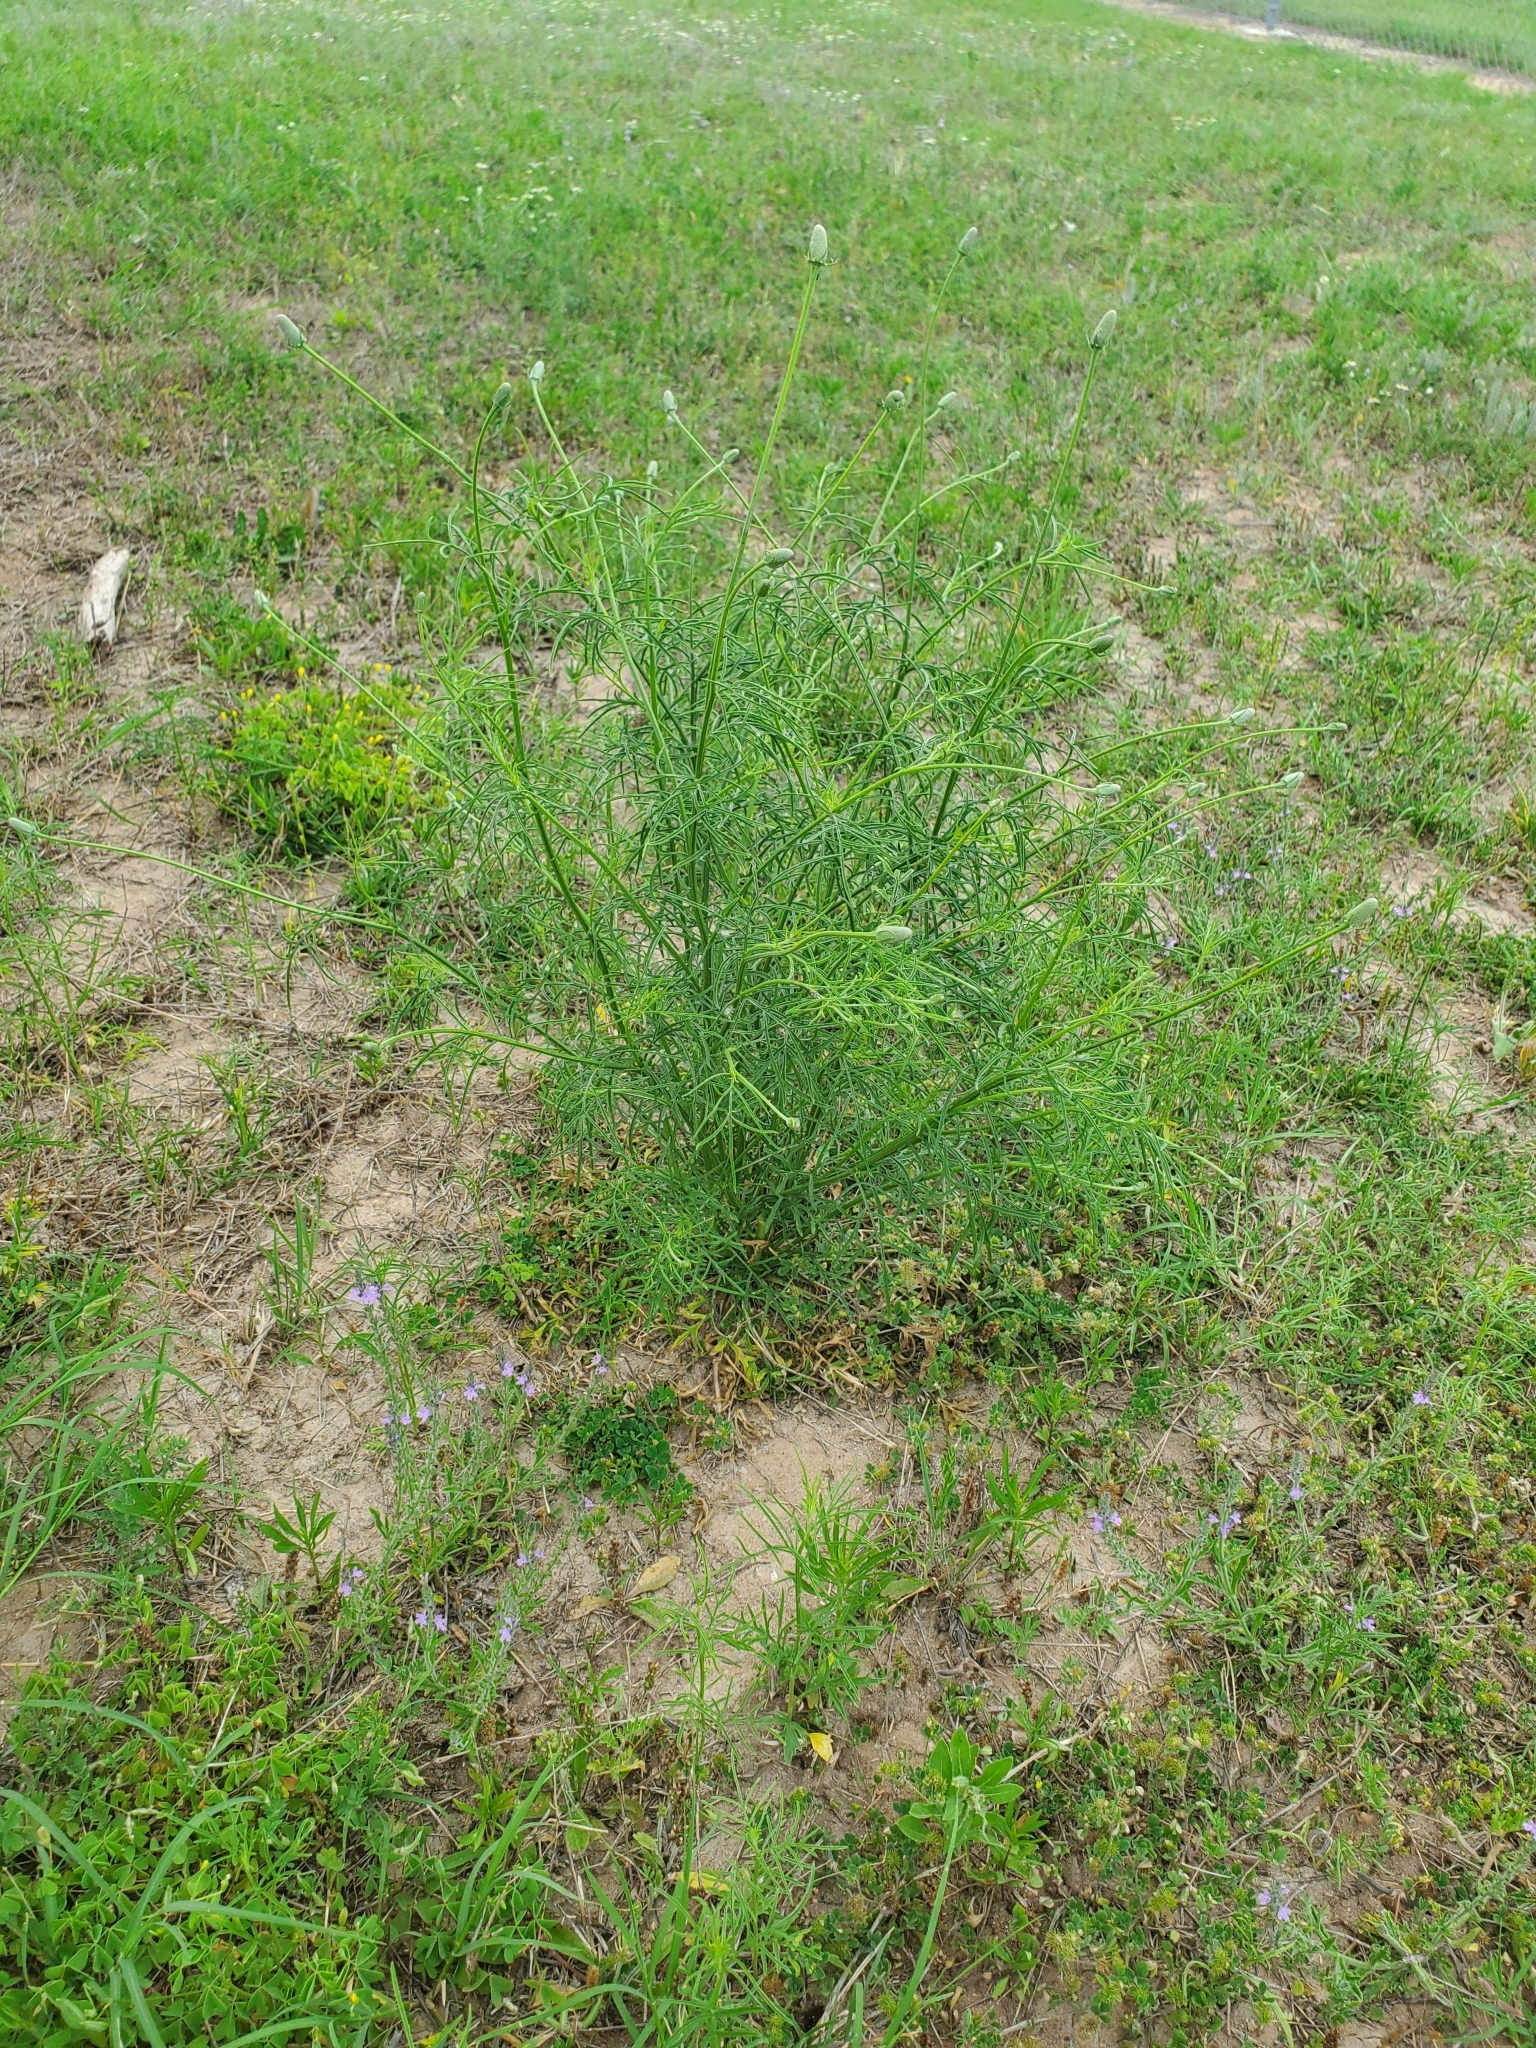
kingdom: Plantae
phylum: Tracheophyta
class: Magnoliopsida
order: Asterales
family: Asteraceae
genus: Ratibida
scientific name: Ratibida columnifera
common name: Prairie coneflower
